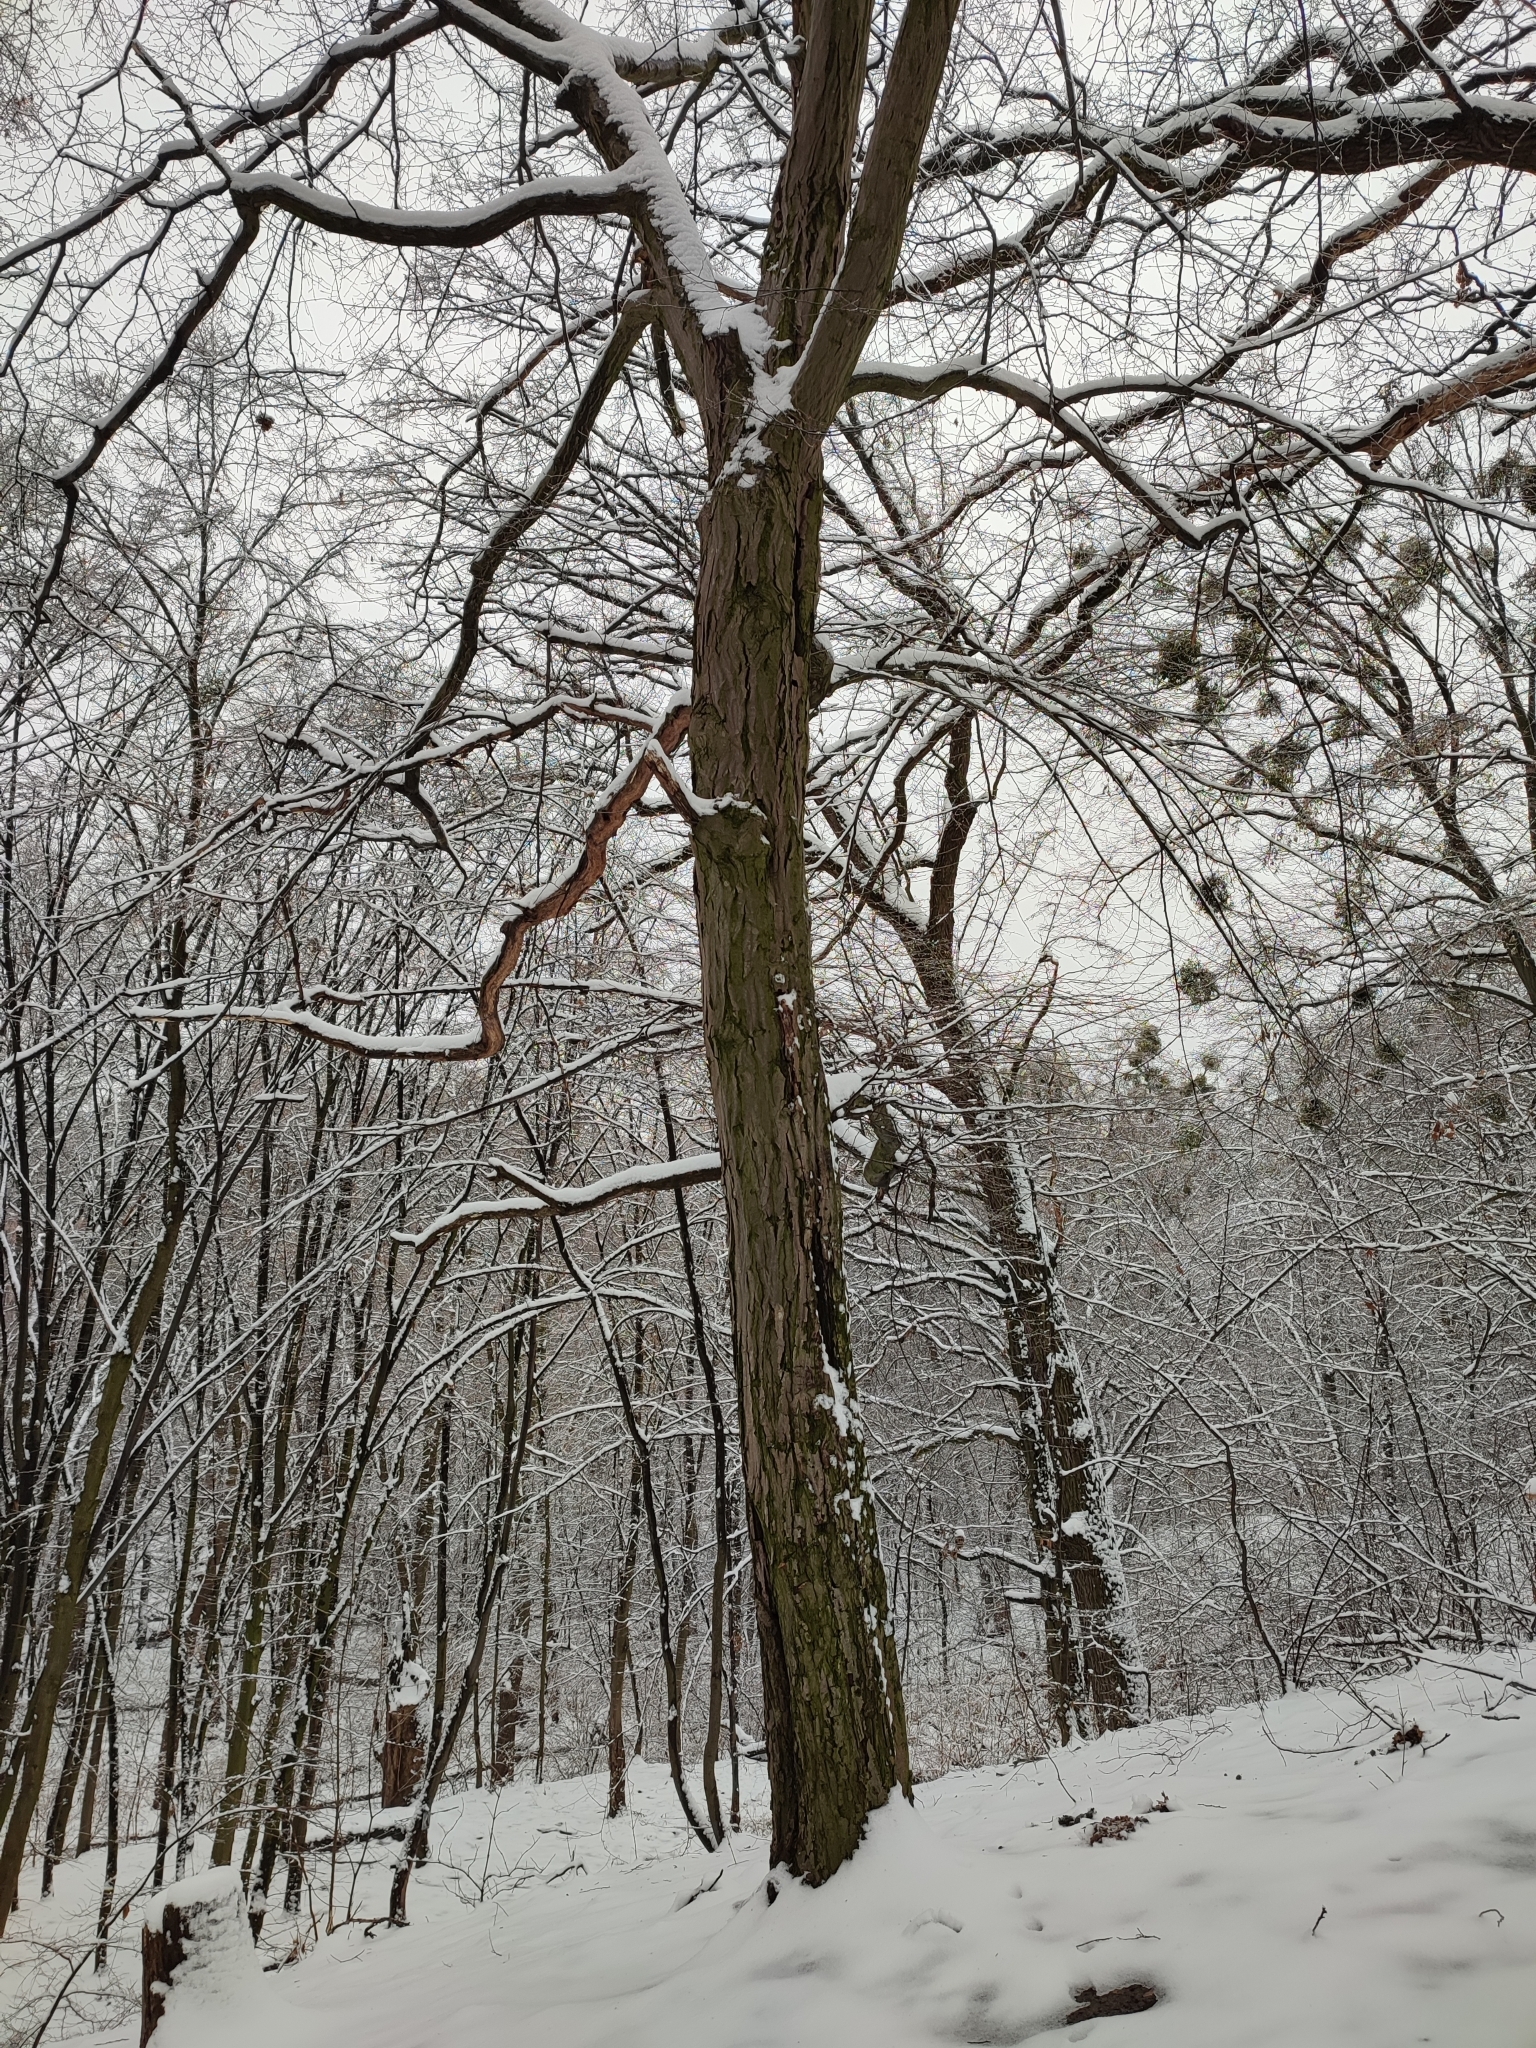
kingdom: Plantae
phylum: Tracheophyta
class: Magnoliopsida
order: Fagales
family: Betulaceae
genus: Carpinus
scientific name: Carpinus betulus
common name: Hornbeam
